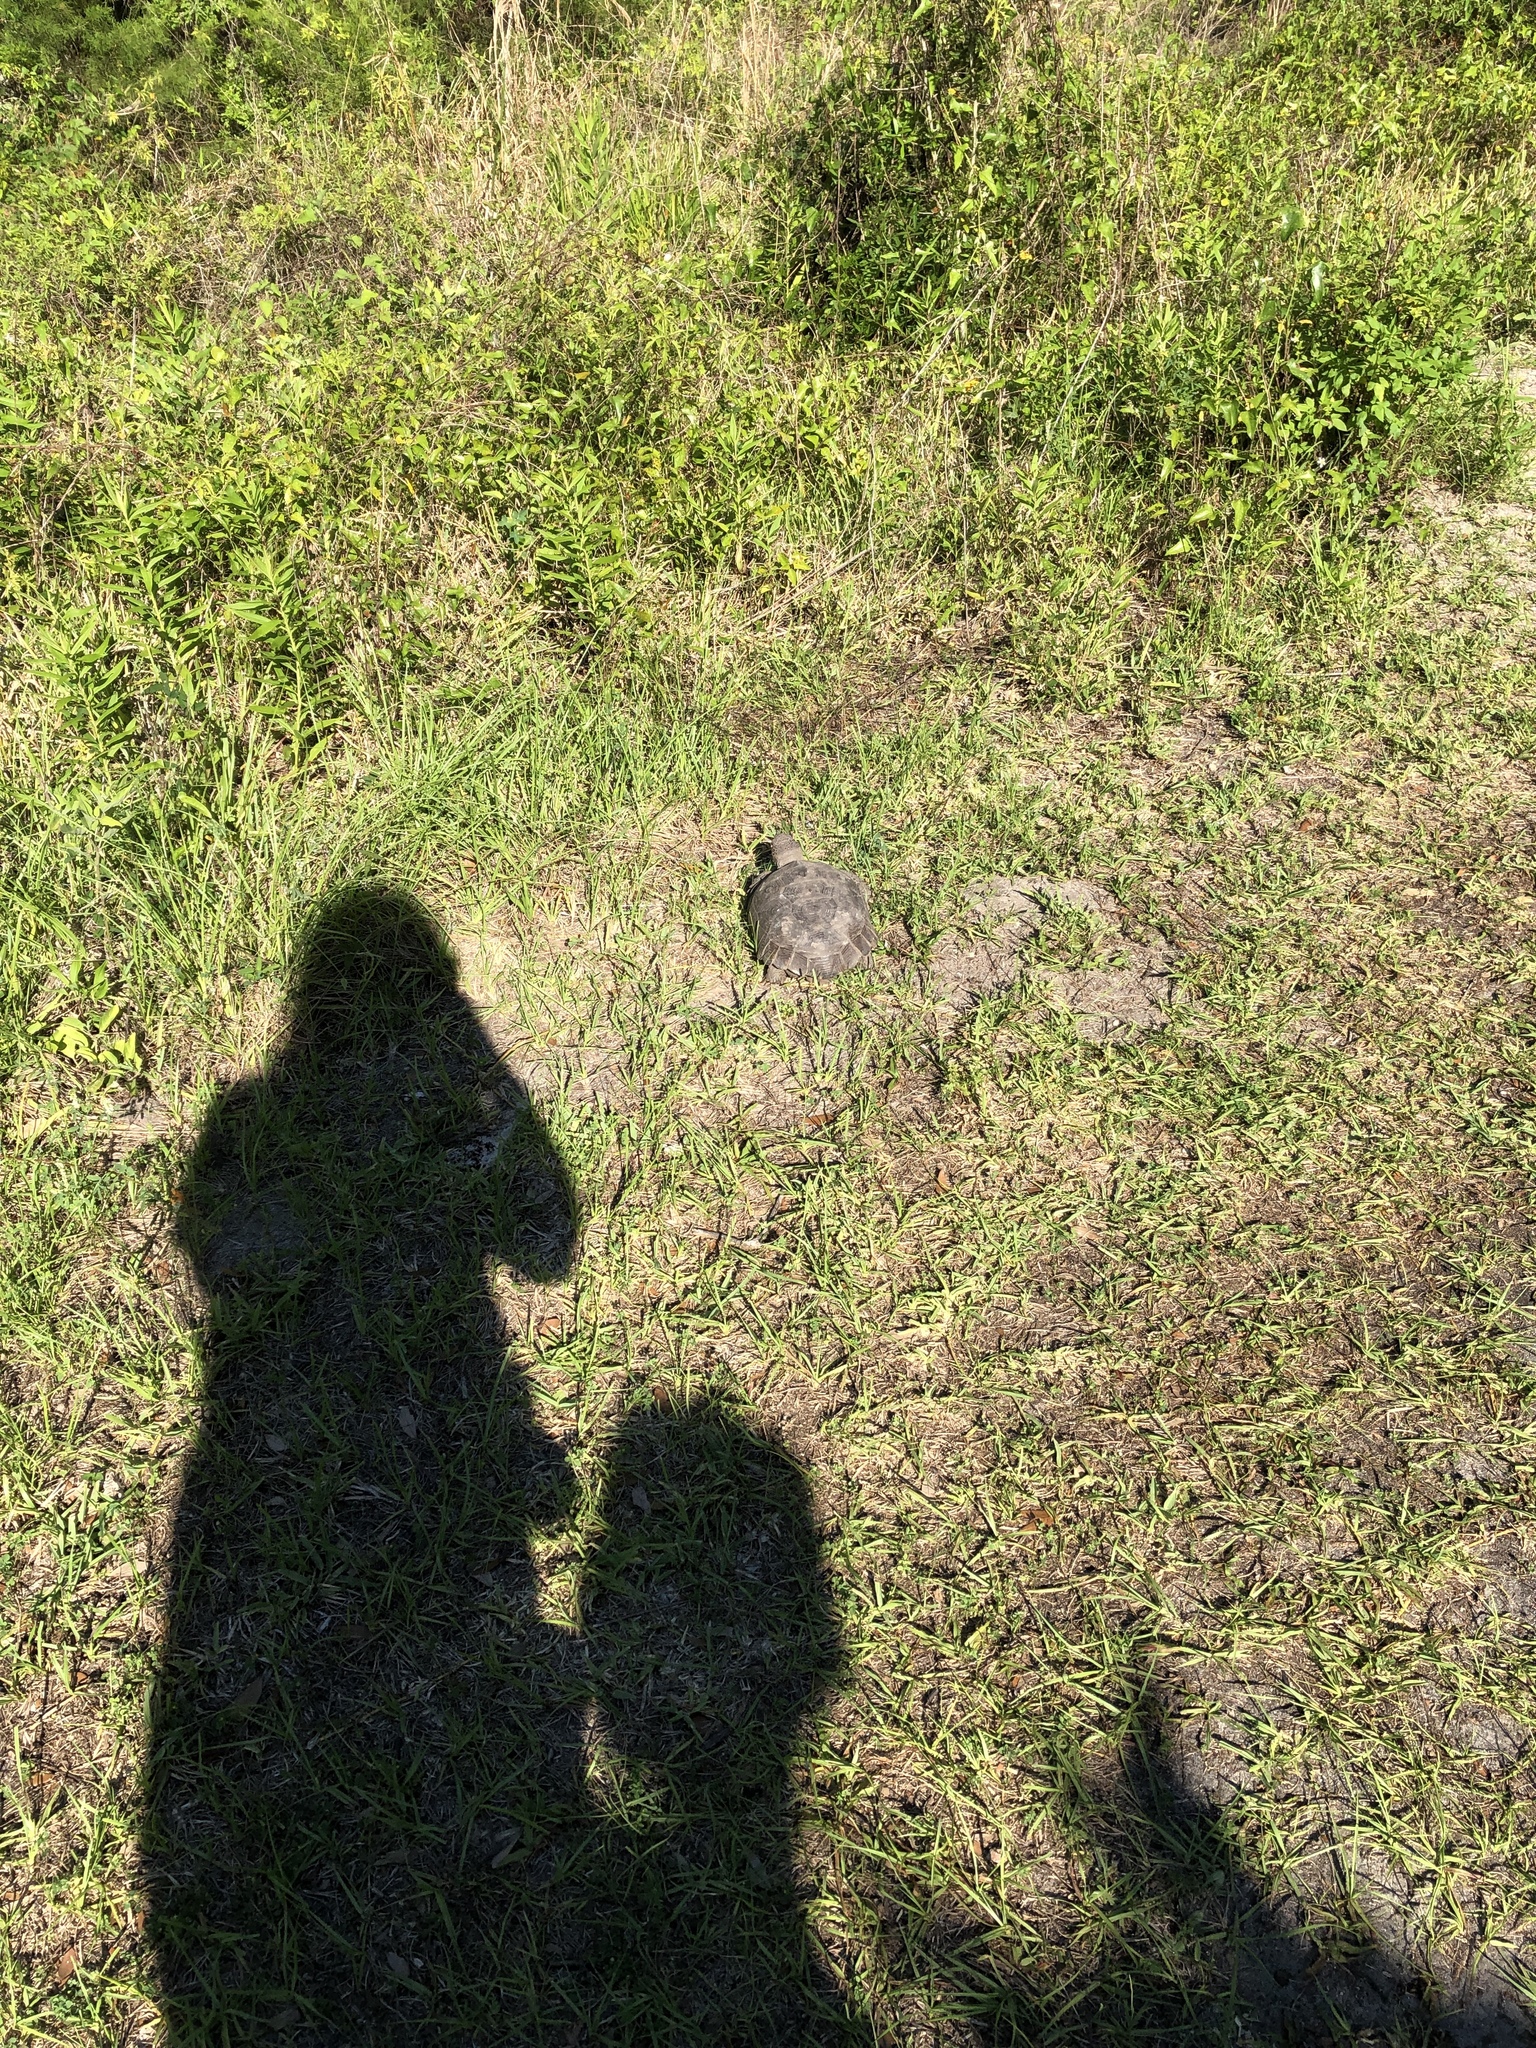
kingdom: Animalia
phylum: Chordata
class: Testudines
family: Testudinidae
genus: Gopherus
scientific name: Gopherus polyphemus
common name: Florida gopher tortoise
